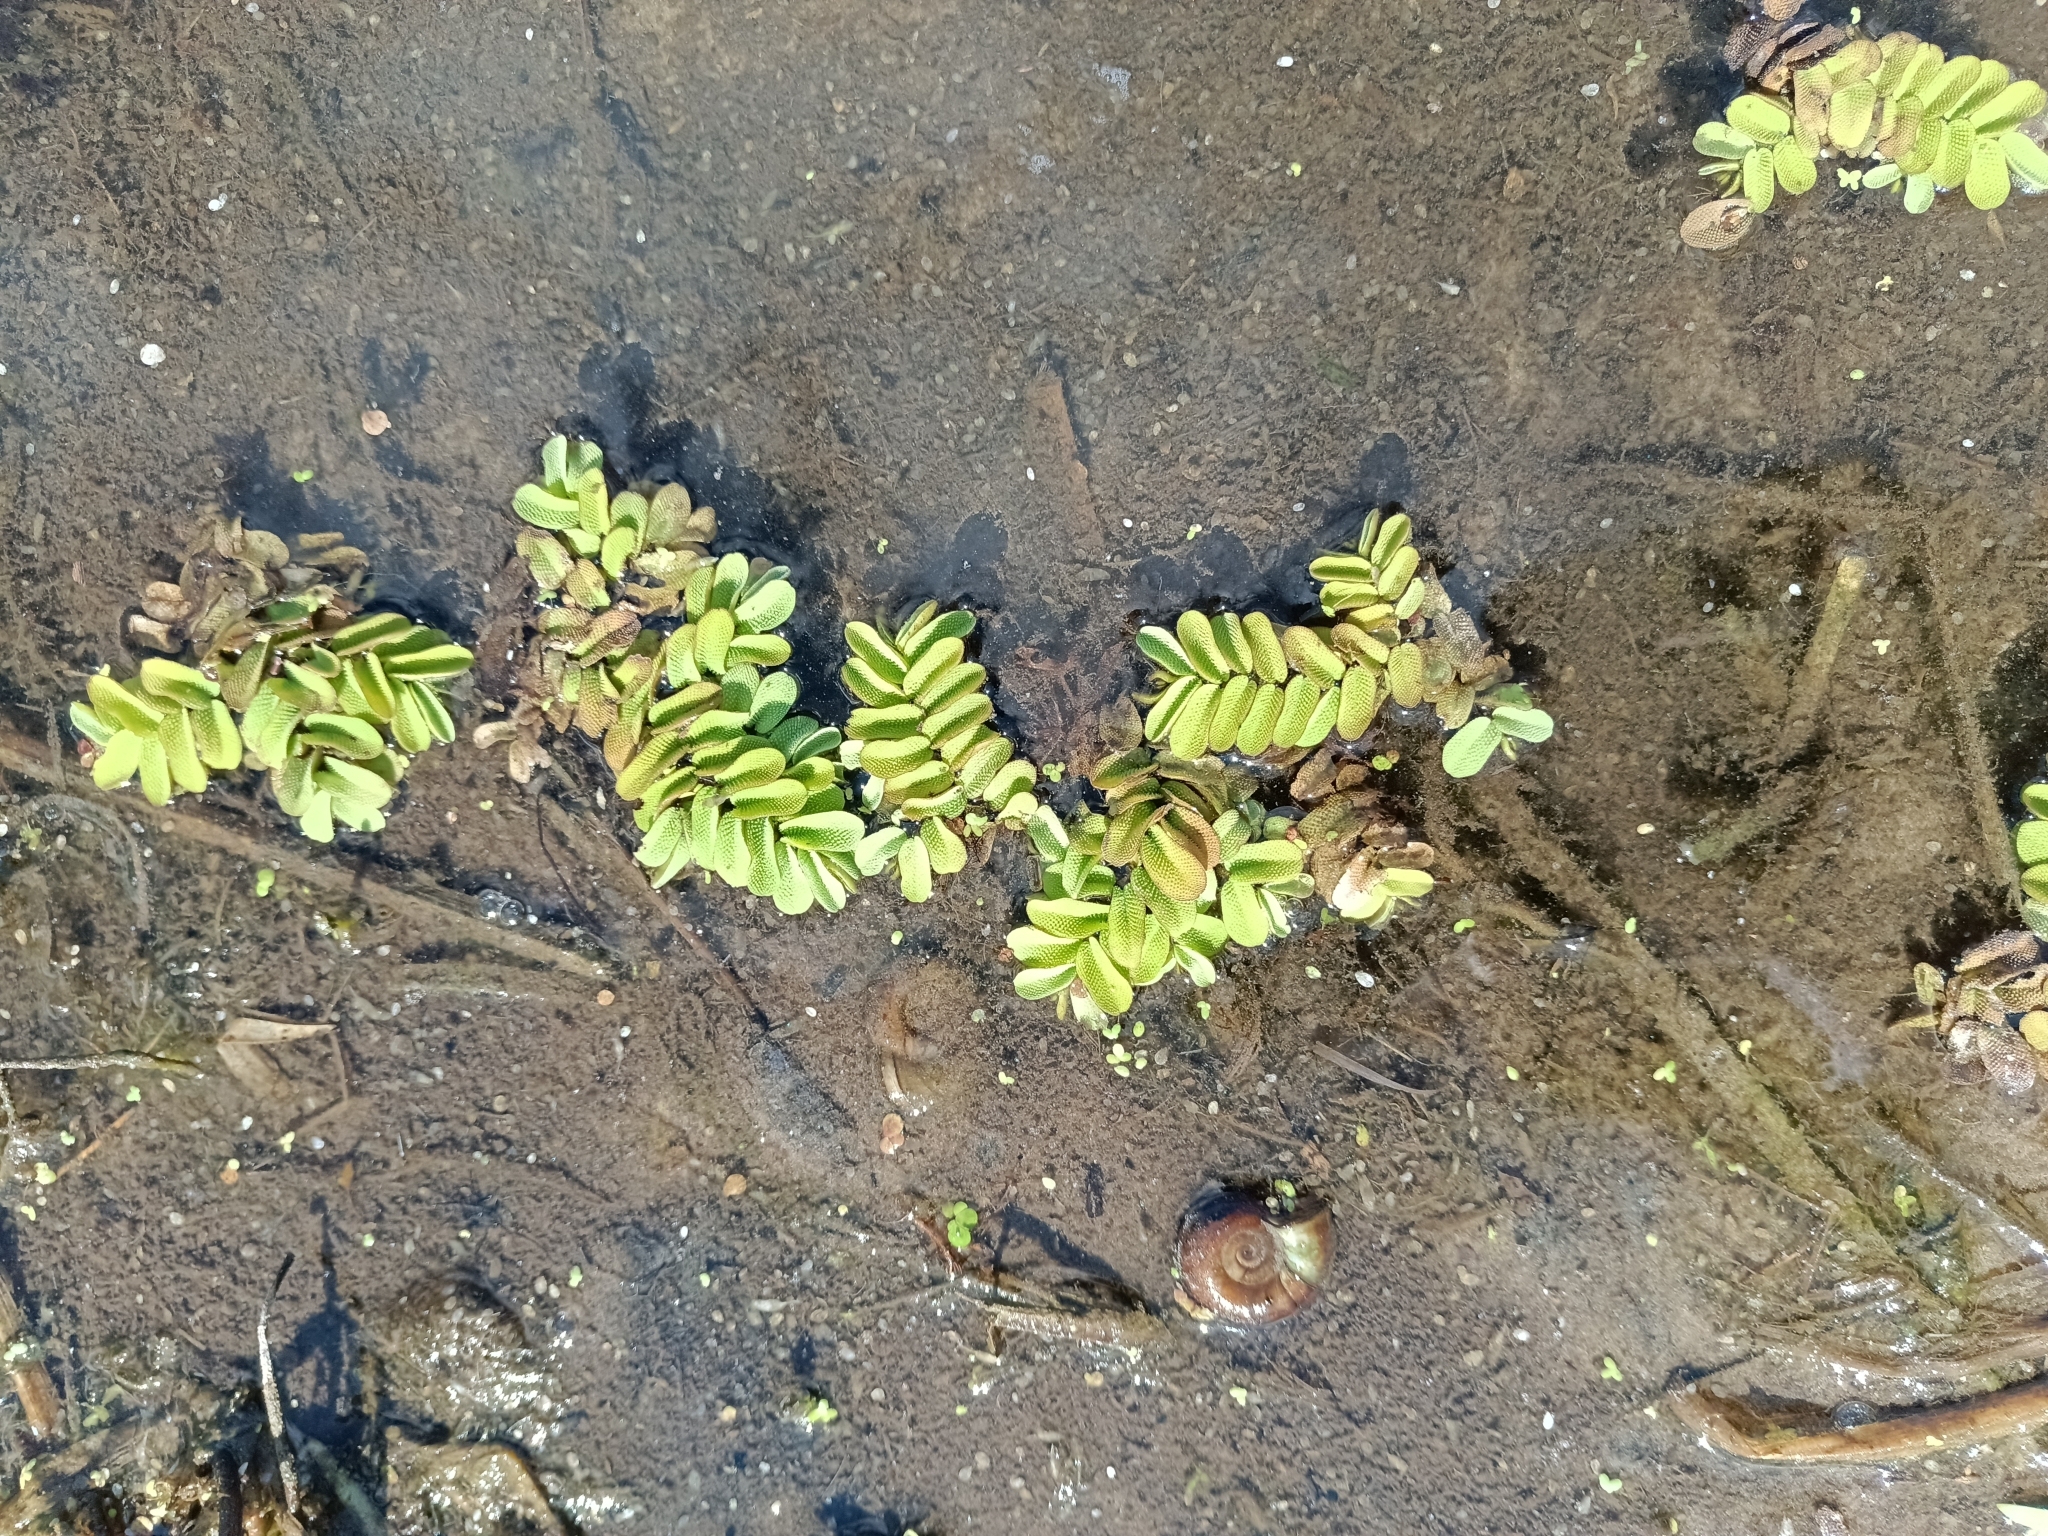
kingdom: Plantae
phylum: Tracheophyta
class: Polypodiopsida
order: Salviniales
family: Salviniaceae
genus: Salvinia
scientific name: Salvinia natans
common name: Floating fern
